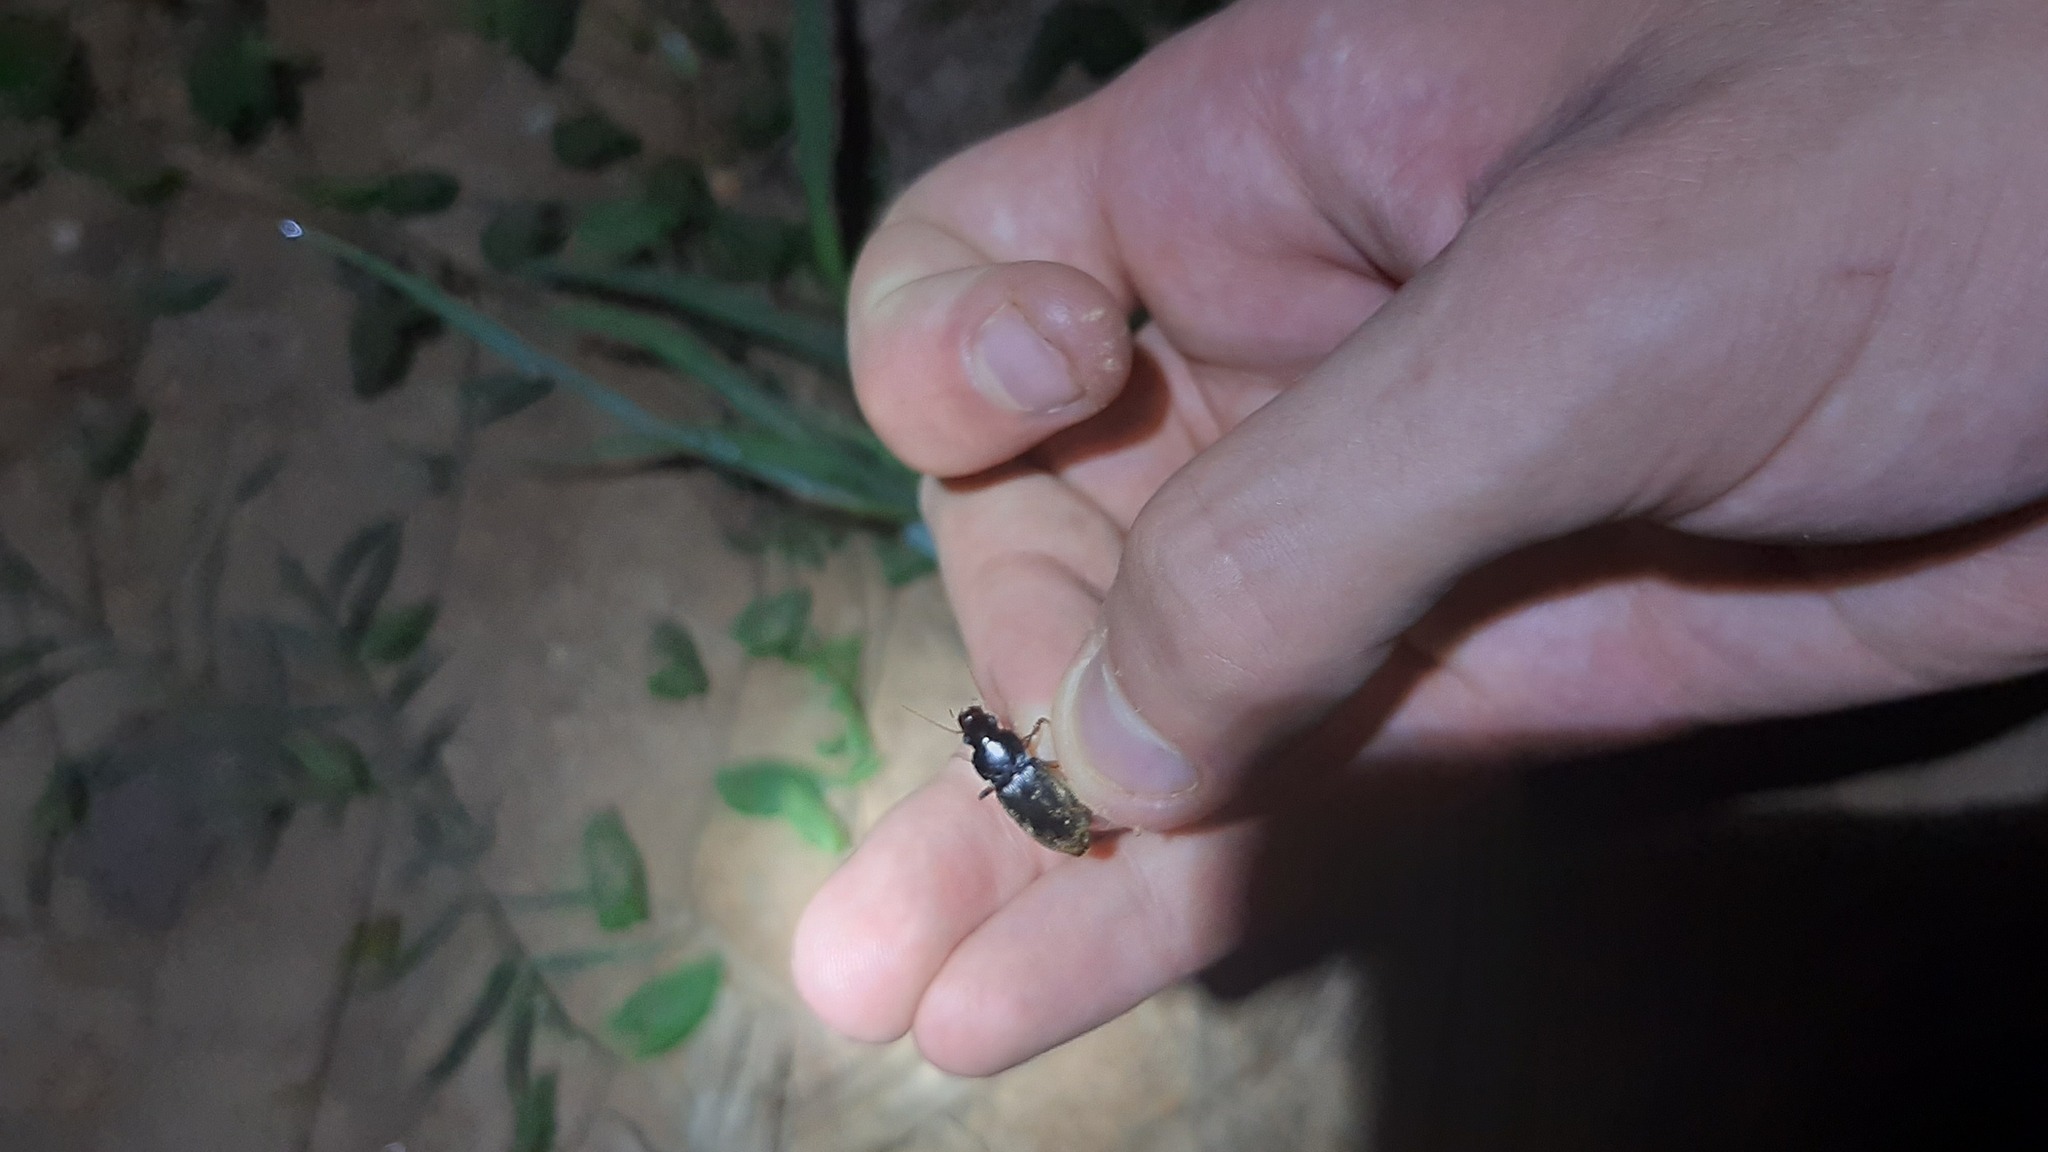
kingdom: Animalia
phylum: Arthropoda
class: Insecta
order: Coleoptera
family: Carabidae
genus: Harpalus
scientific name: Harpalus rufipes
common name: Strawberry harp ground beetle
